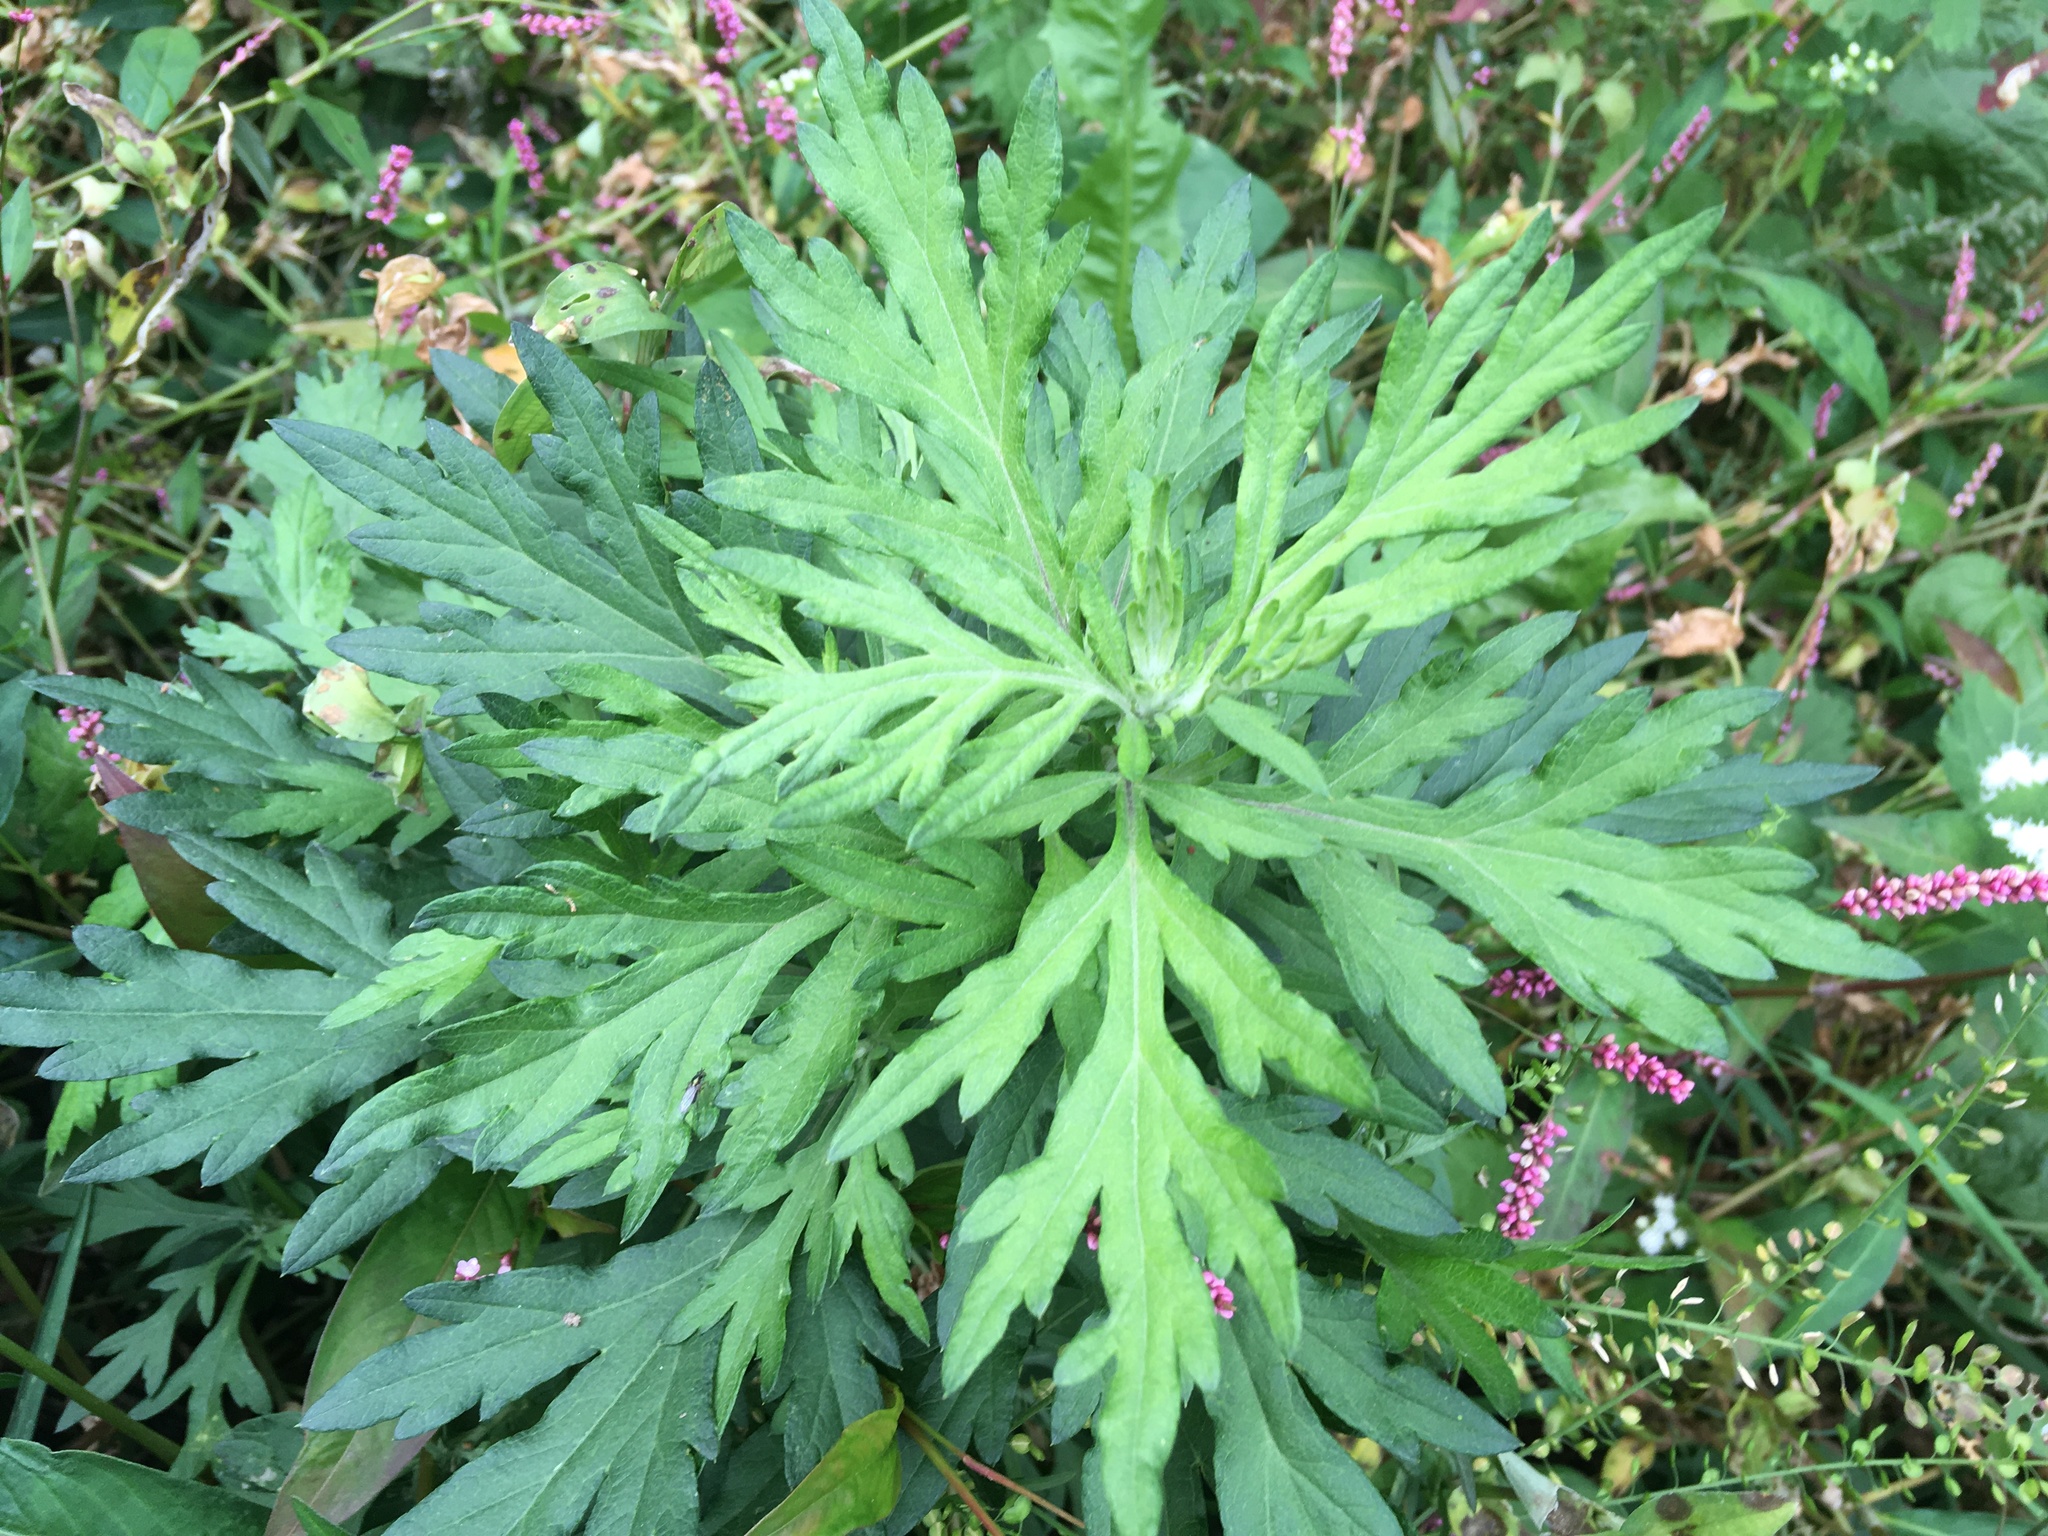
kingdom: Plantae
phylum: Tracheophyta
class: Magnoliopsida
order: Asterales
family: Asteraceae
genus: Artemisia
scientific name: Artemisia vulgaris
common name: Mugwort
